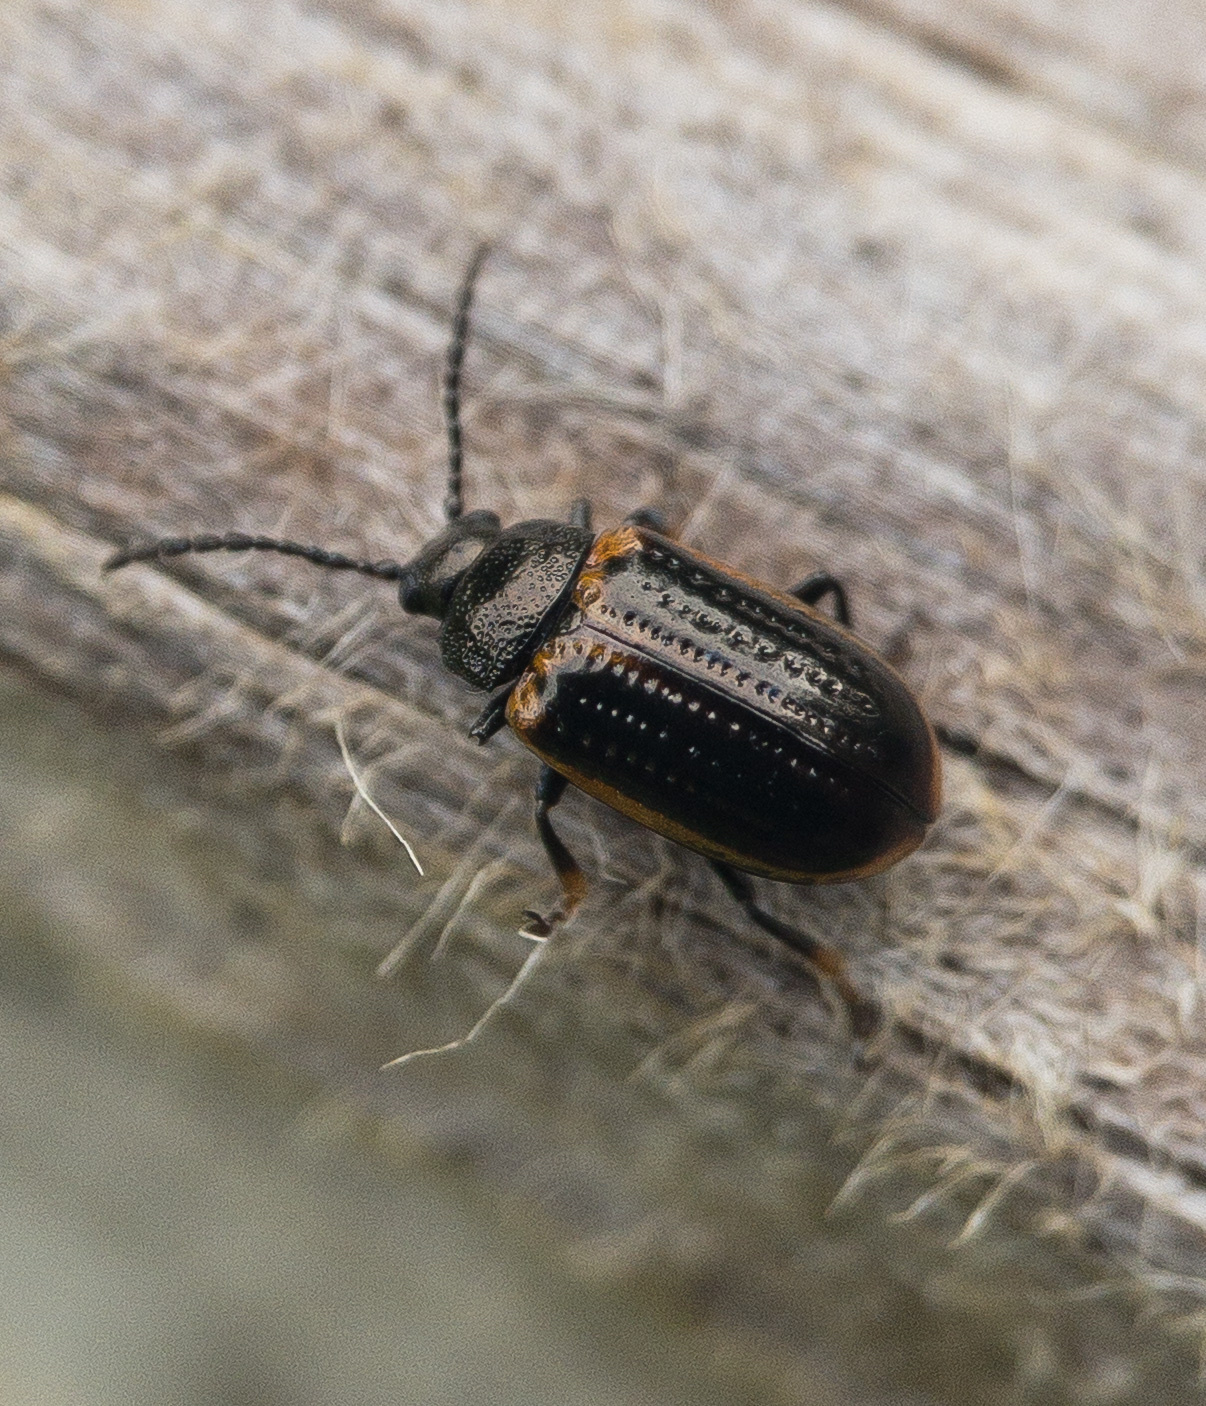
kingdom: Animalia
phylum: Arthropoda
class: Insecta
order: Coleoptera
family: Chrysomelidae
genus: Microtheca
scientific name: Microtheca ochroloma
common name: Leaf beetle
